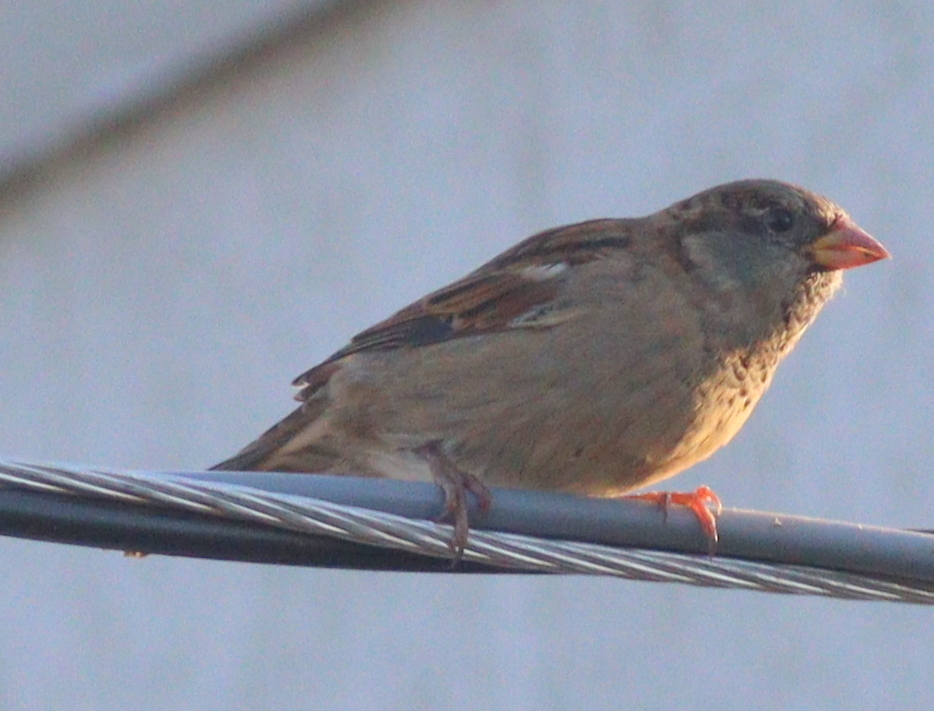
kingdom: Animalia
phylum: Chordata
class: Aves
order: Passeriformes
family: Passeridae
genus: Passer
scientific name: Passer domesticus
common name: House sparrow
